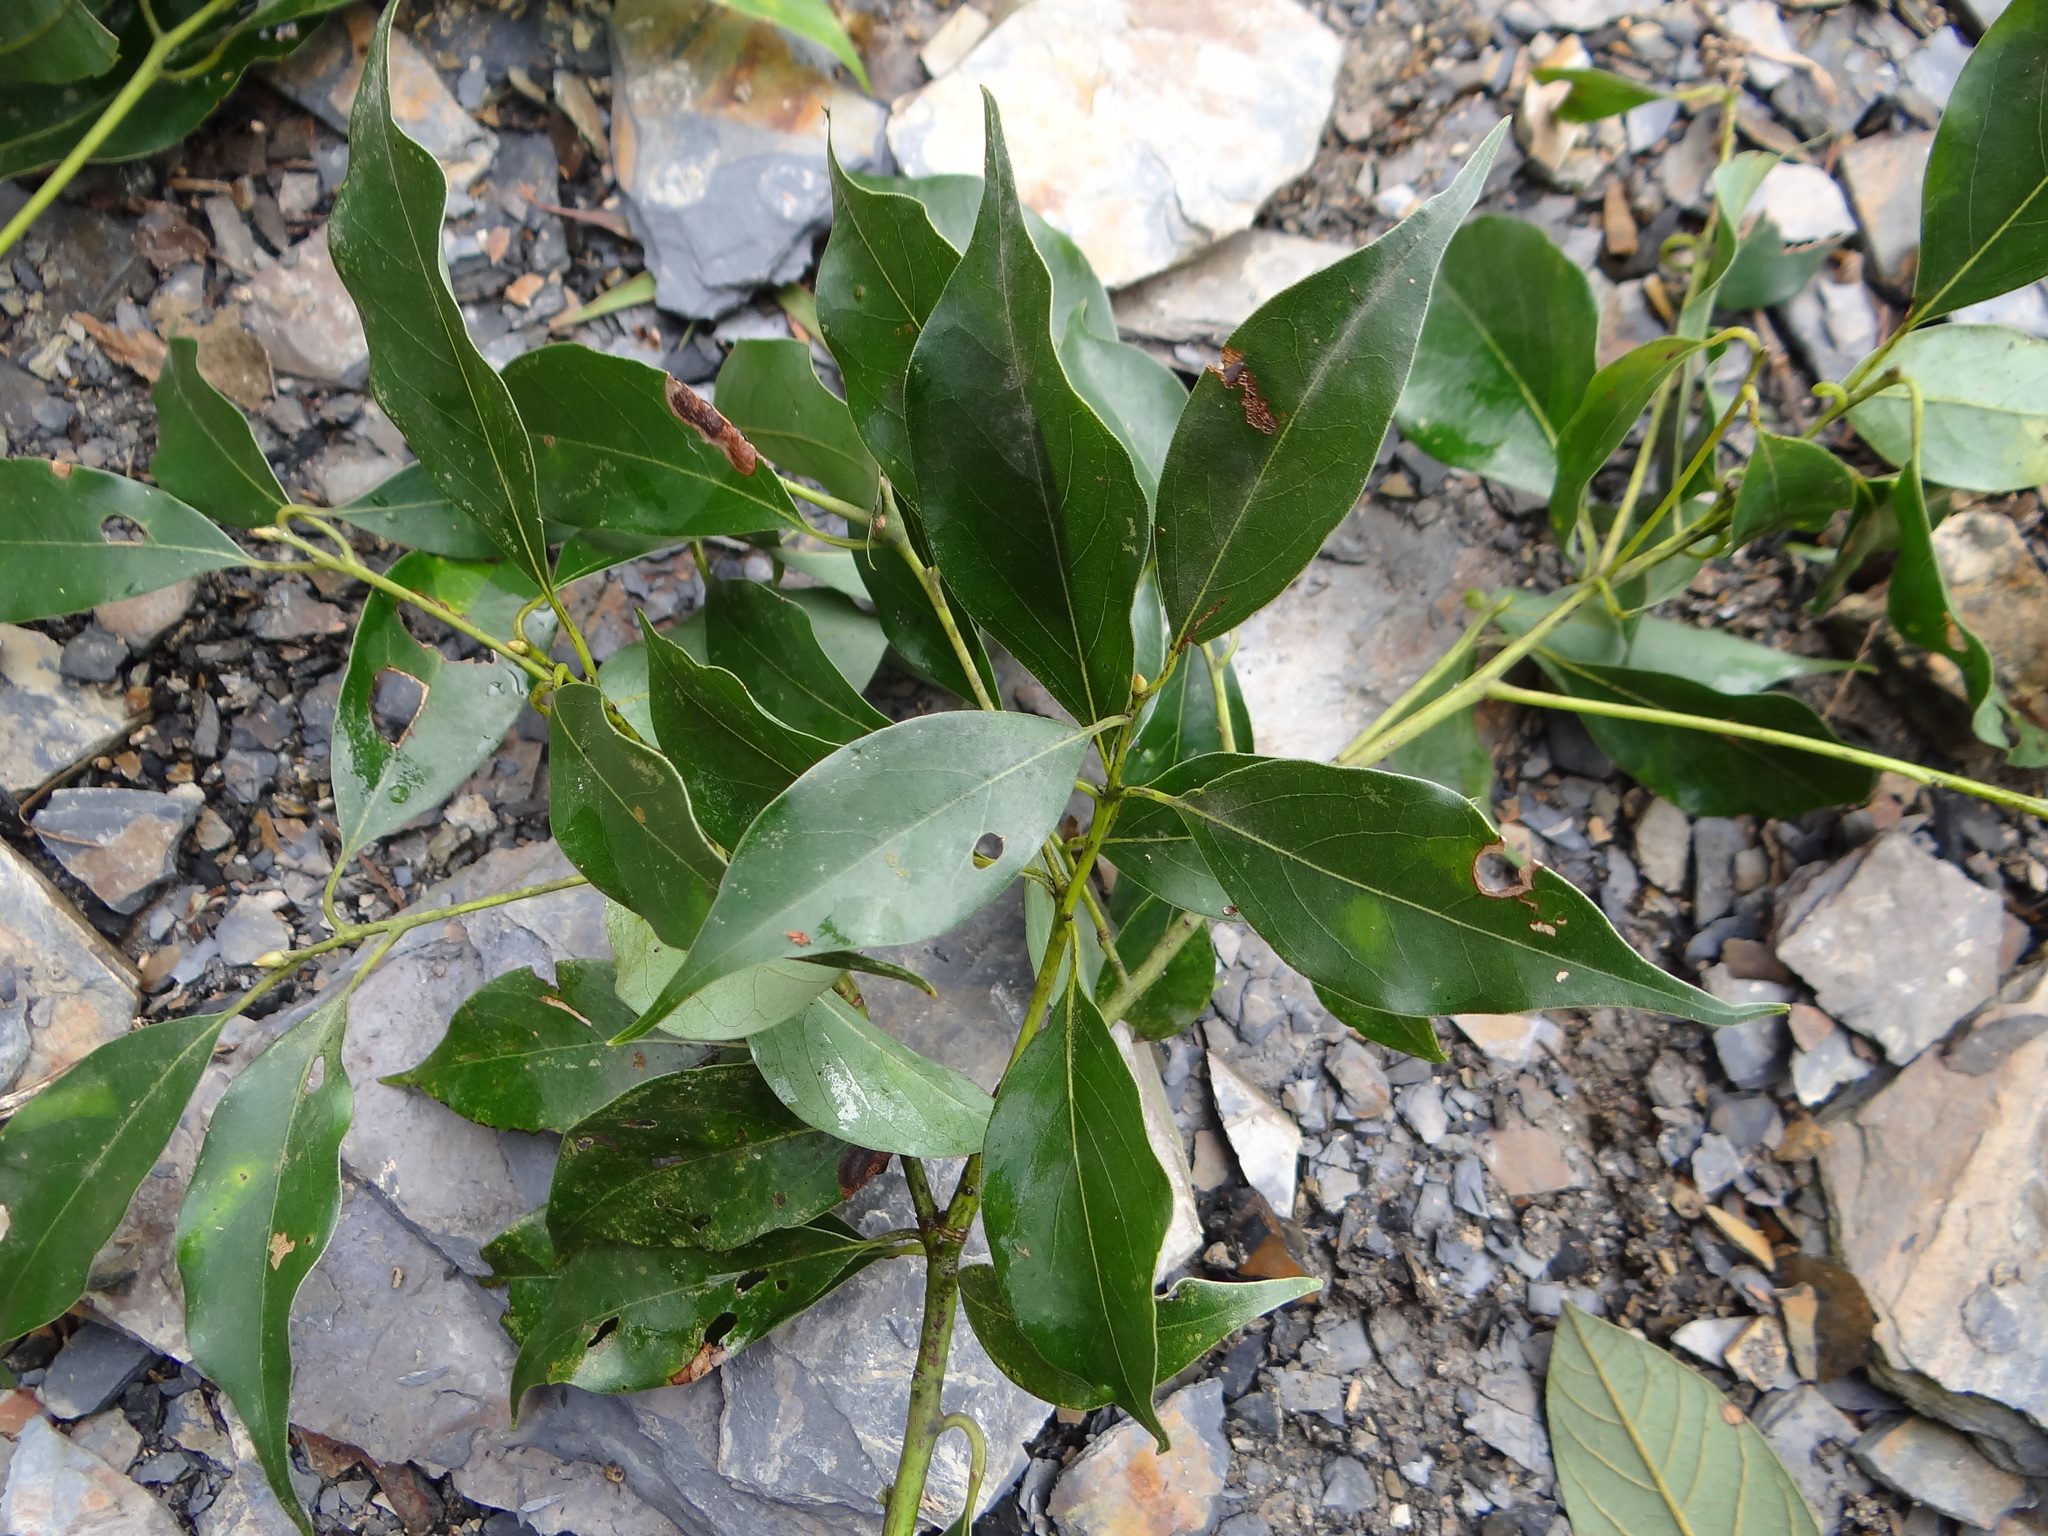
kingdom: Plantae
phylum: Tracheophyta
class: Magnoliopsida
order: Laurales
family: Lauraceae
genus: Cinnamomum
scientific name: Cinnamomum philippinense
